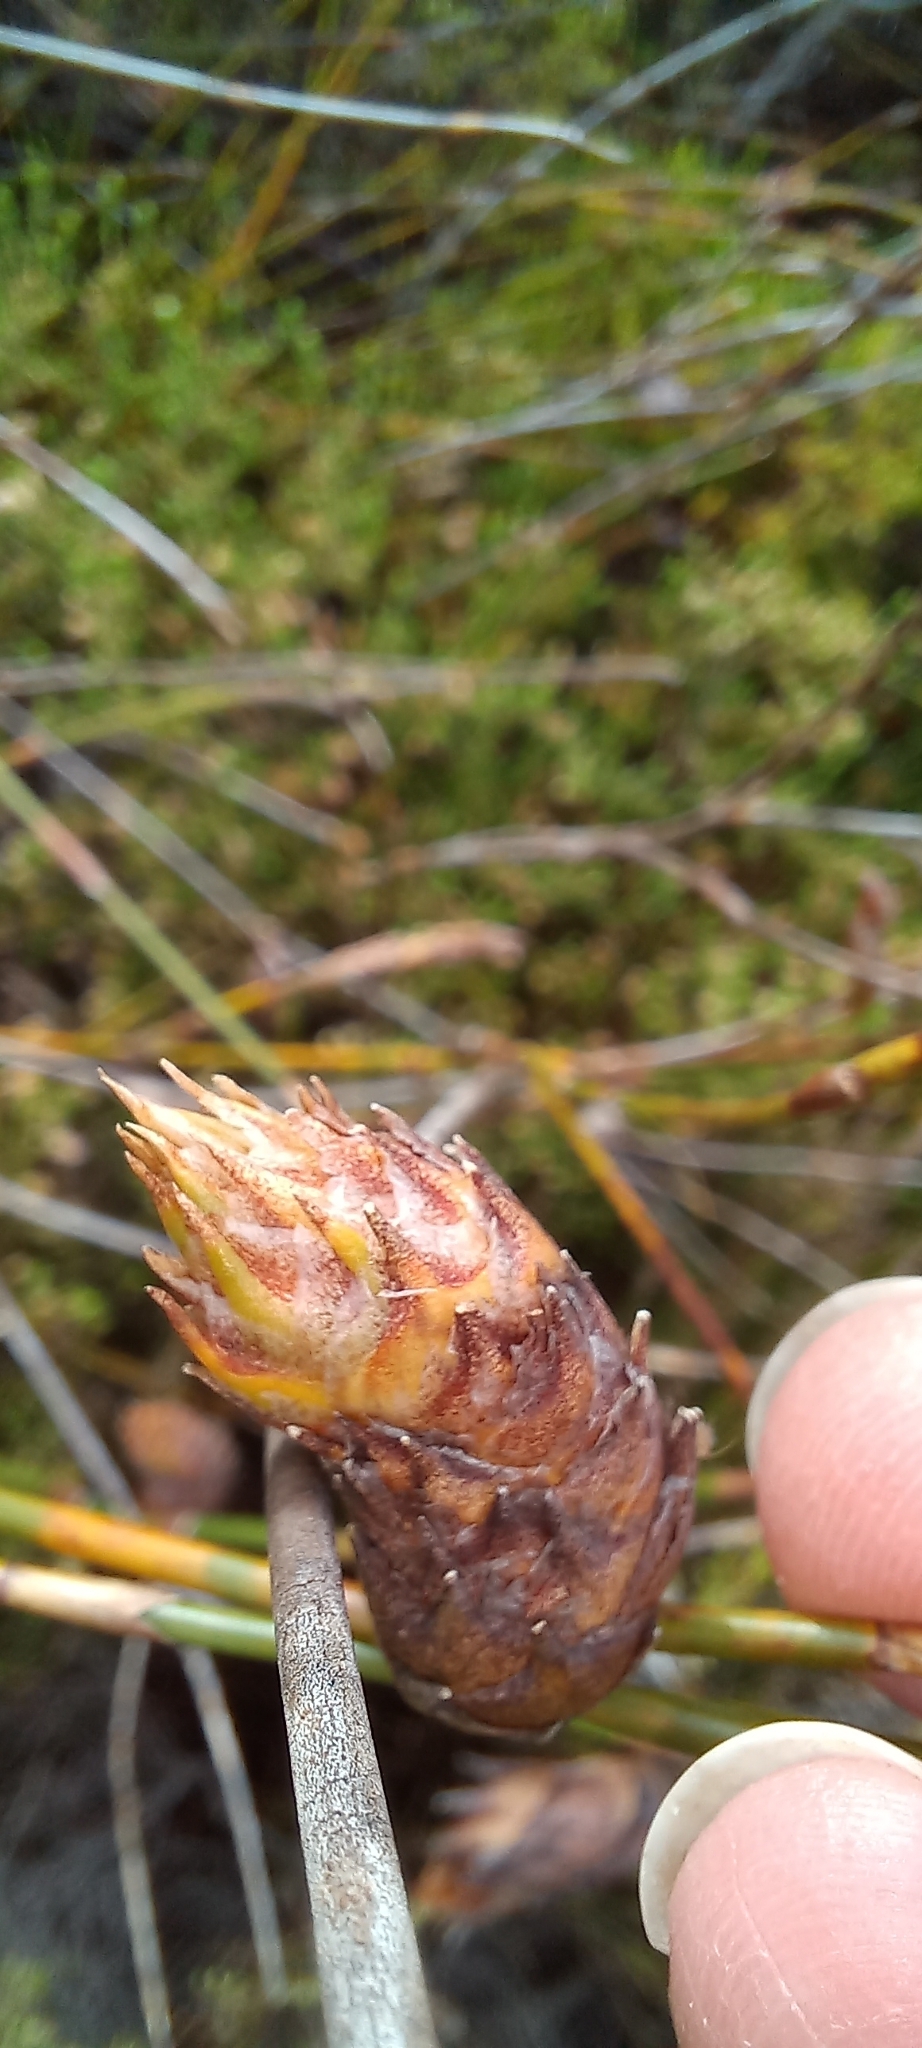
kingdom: Plantae
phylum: Tracheophyta
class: Liliopsida
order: Poales
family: Restionaceae
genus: Restio
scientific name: Restio dispar
